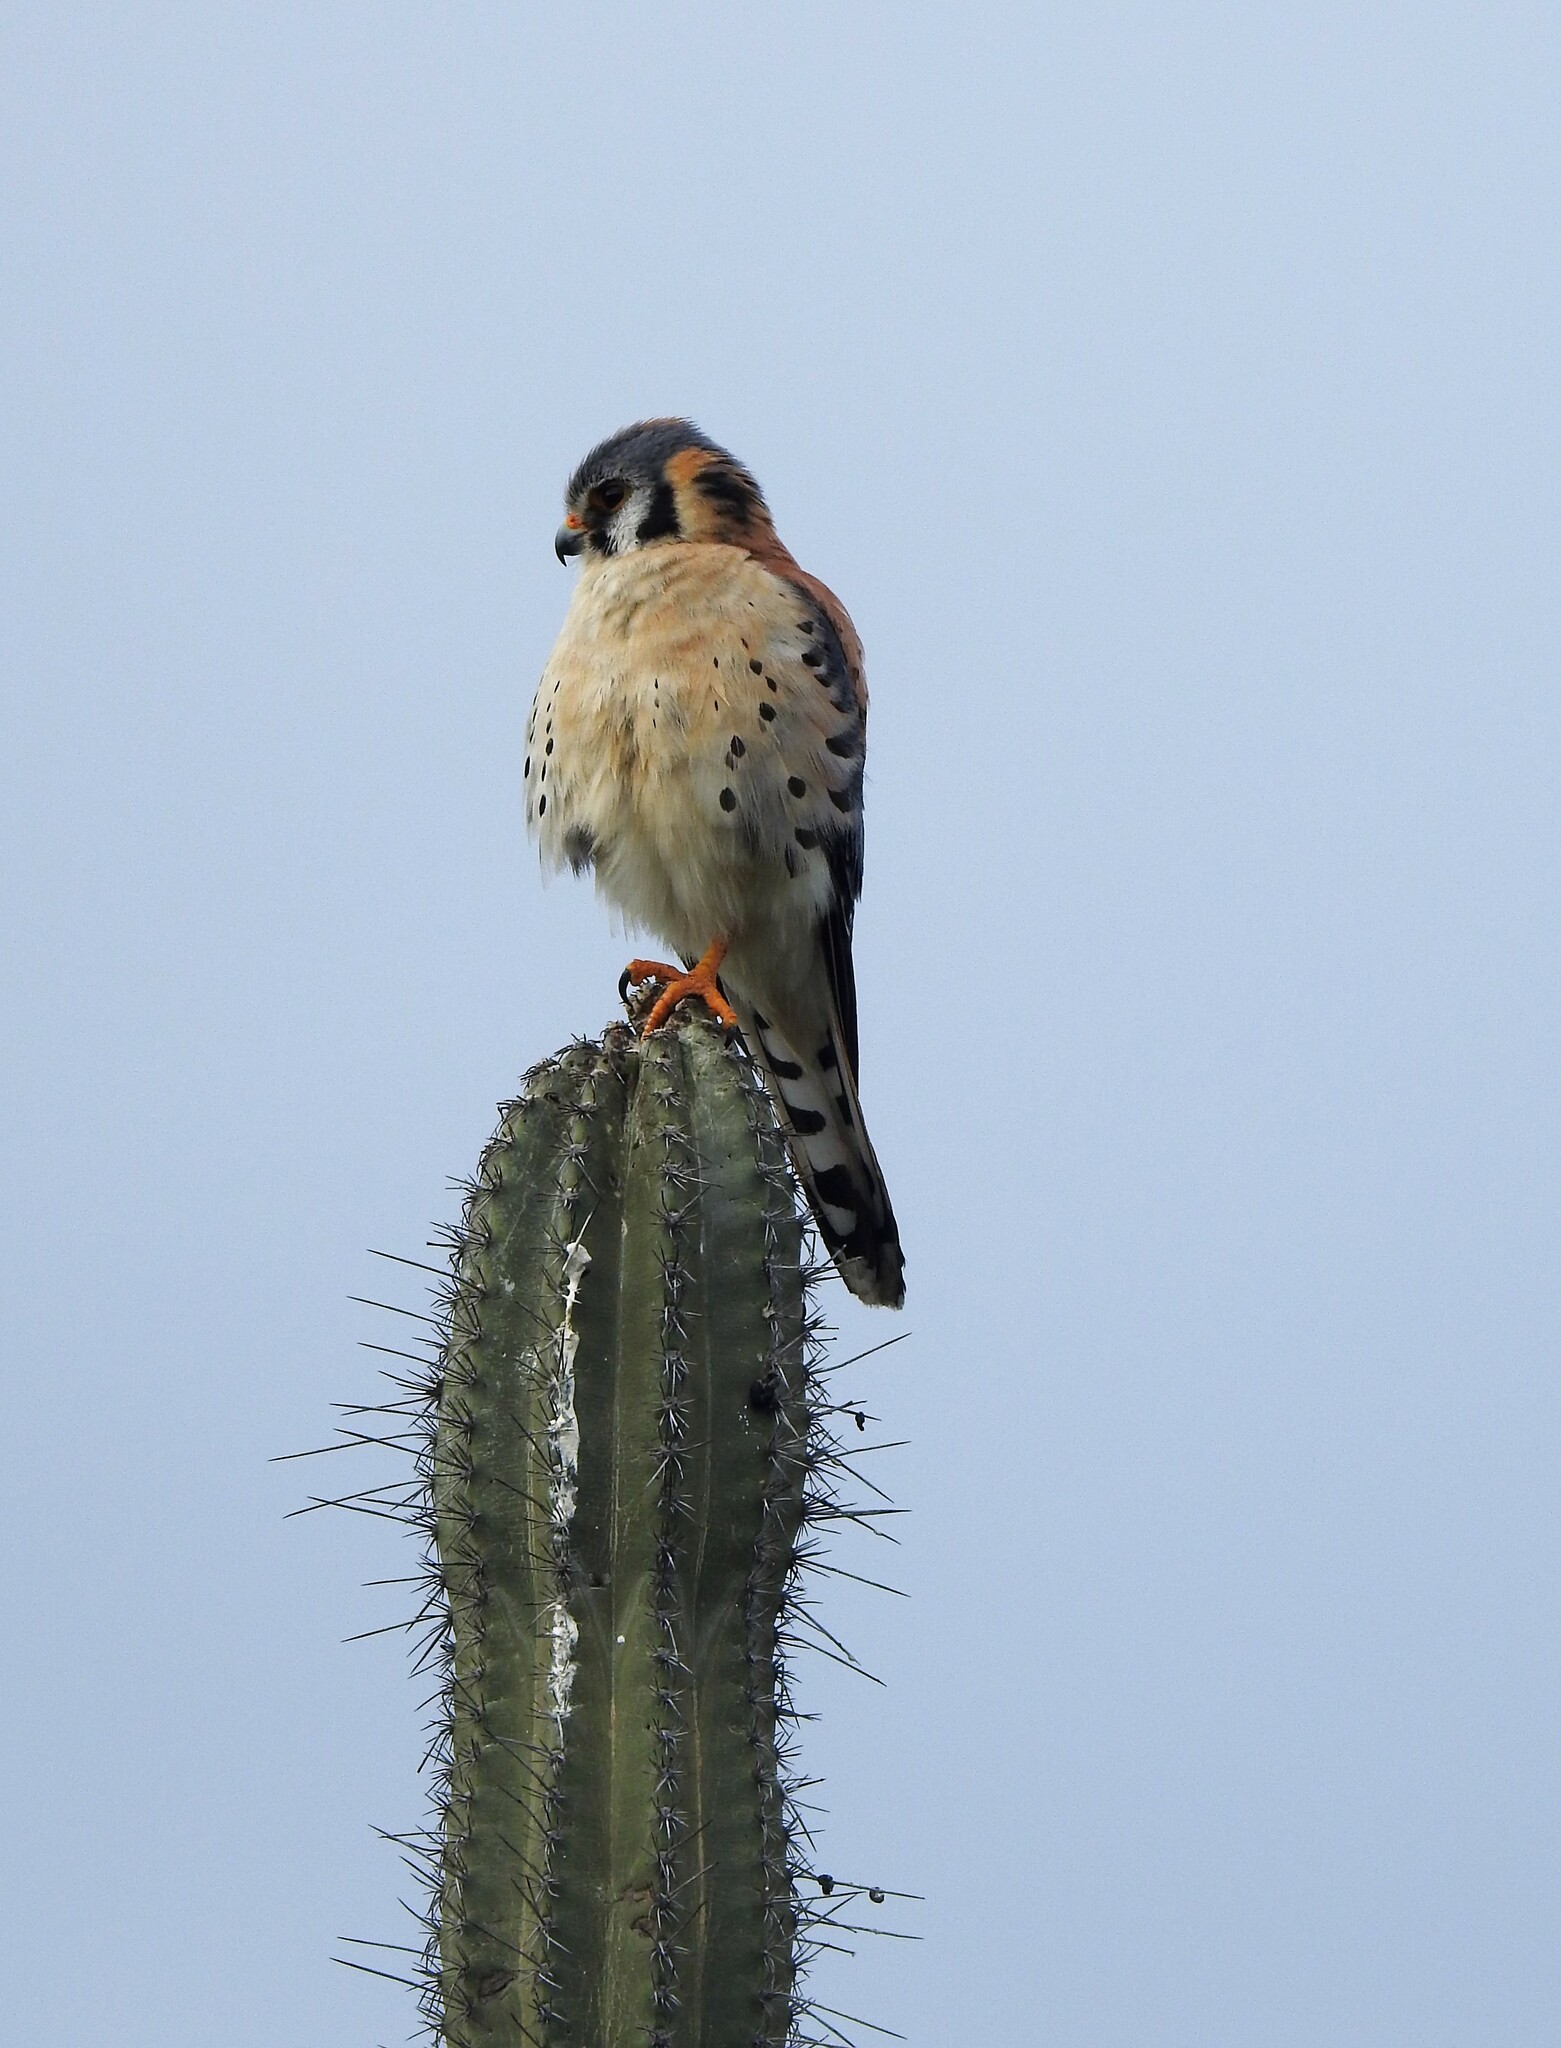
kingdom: Animalia
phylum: Chordata
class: Aves
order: Falconiformes
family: Falconidae
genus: Falco
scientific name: Falco sparverius
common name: American kestrel
